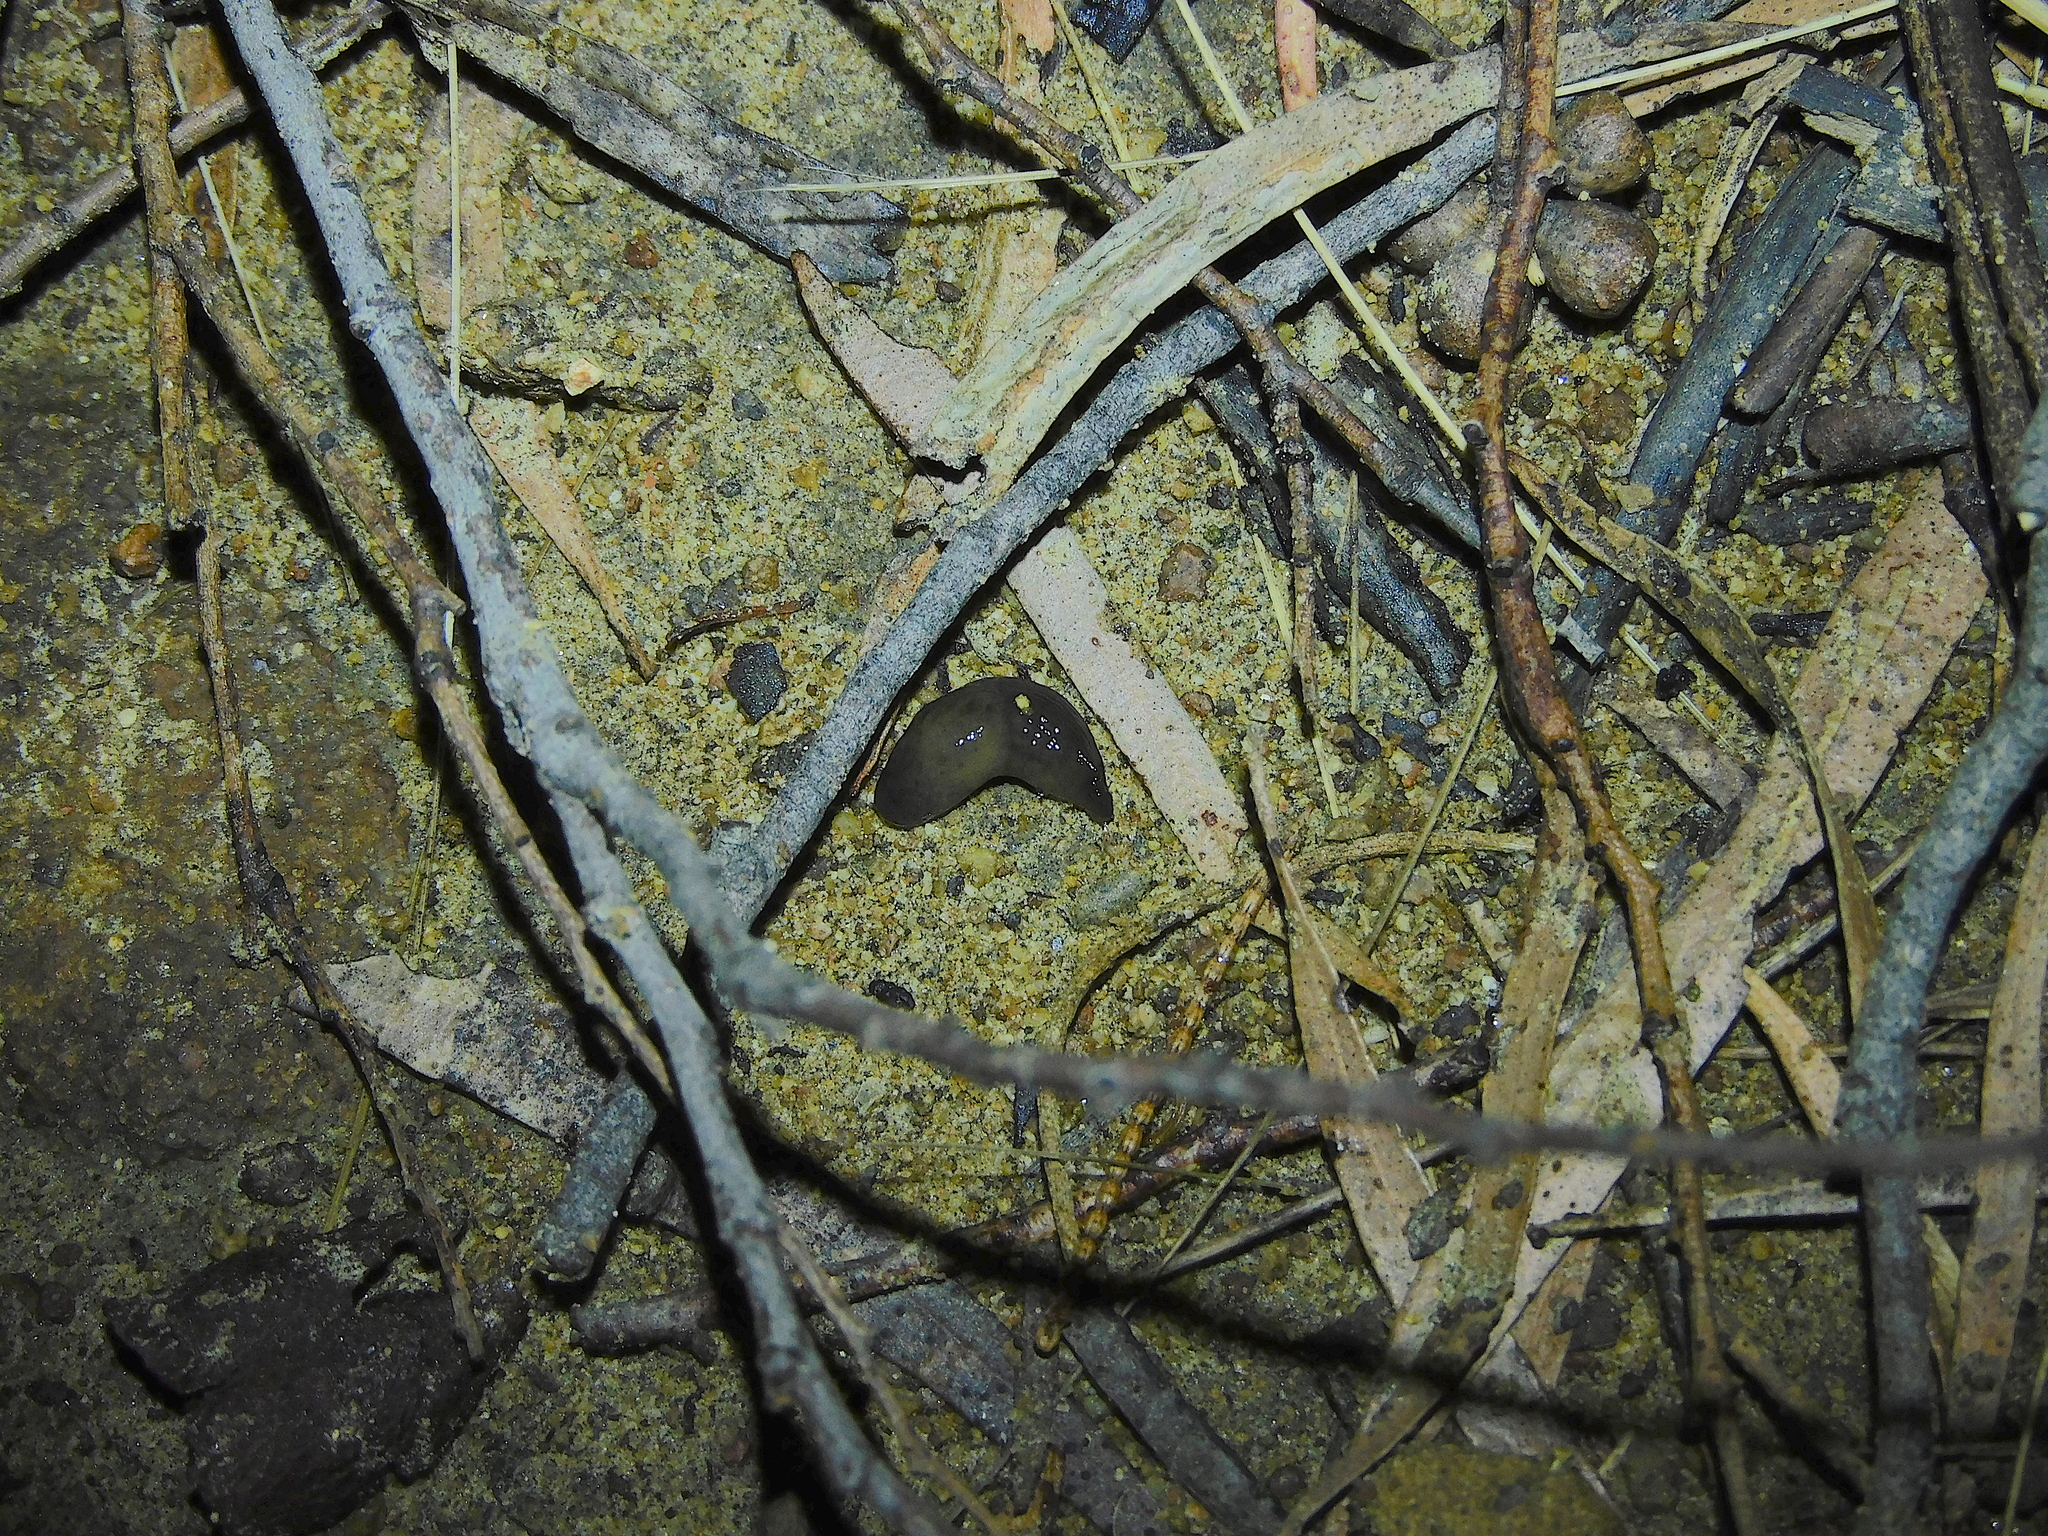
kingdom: Animalia
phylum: Mollusca
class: Gastropoda
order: Stylommatophora
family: Agriolimacidae
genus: Deroceras
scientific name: Deroceras invadens
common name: Caruana's slug
